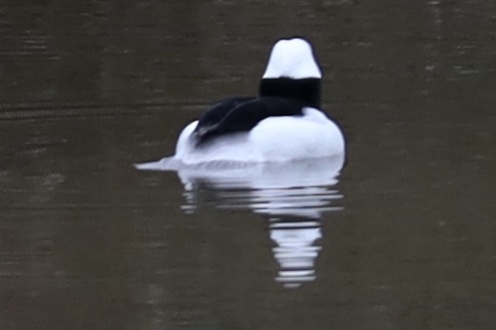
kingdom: Animalia
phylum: Chordata
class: Aves
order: Anseriformes
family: Anatidae
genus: Bucephala
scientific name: Bucephala albeola
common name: Bufflehead
